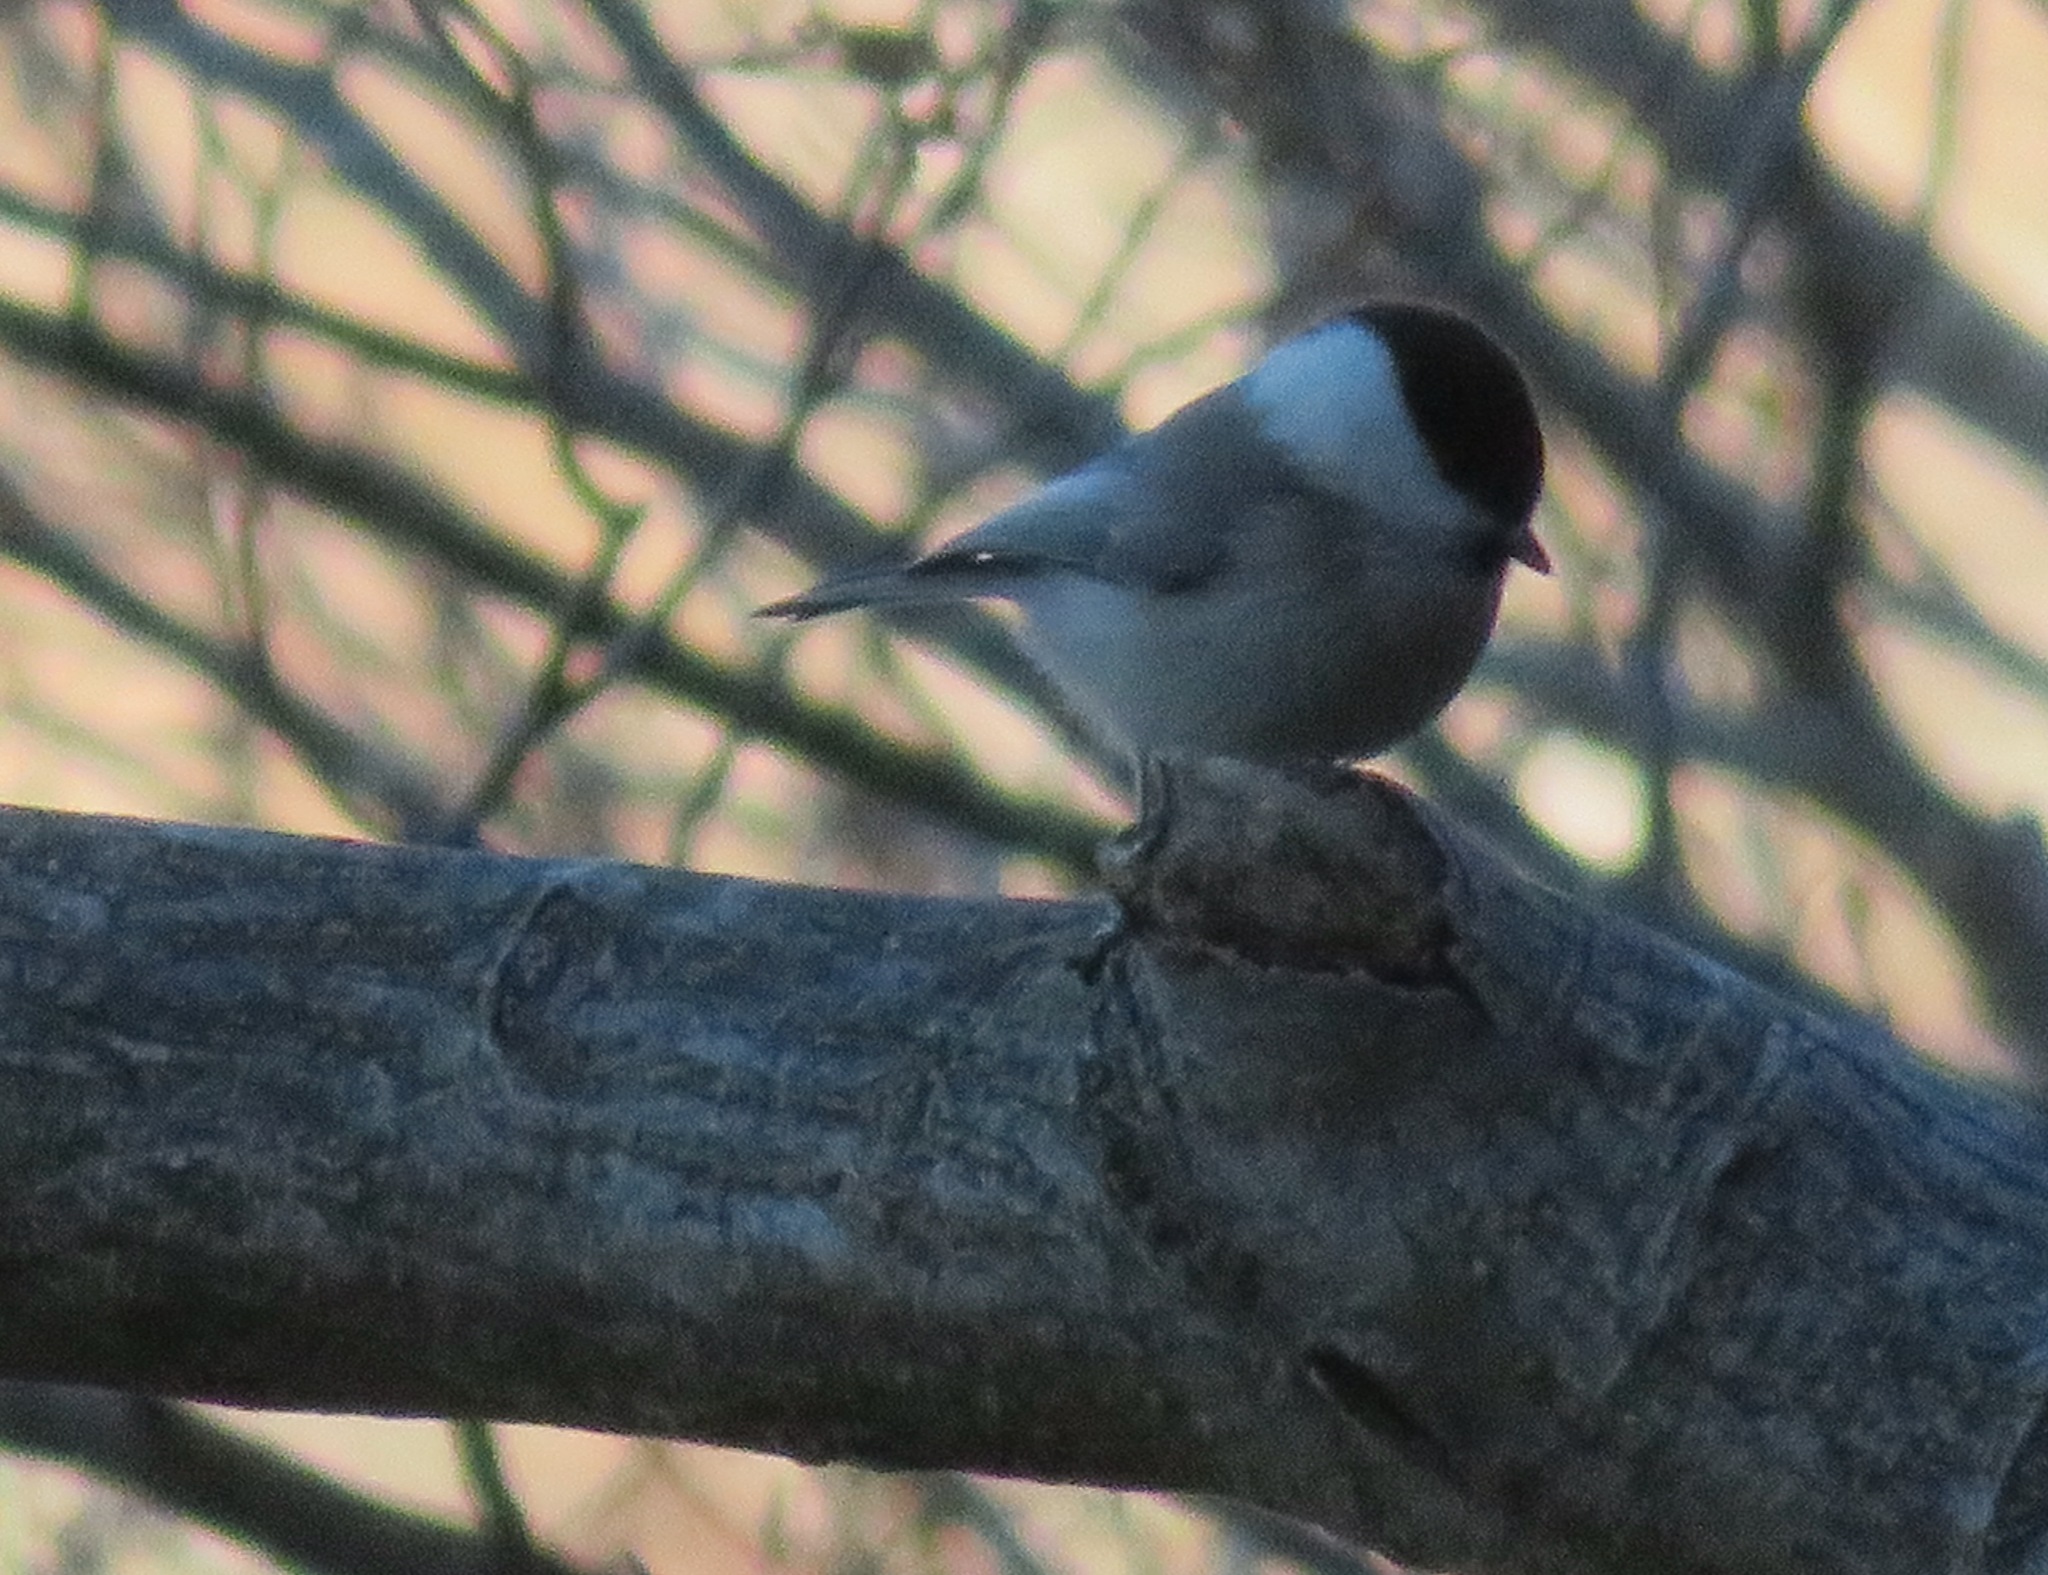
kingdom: Animalia
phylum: Chordata
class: Aves
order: Passeriformes
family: Paridae
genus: Poecile
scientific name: Poecile montanus
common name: Willow tit
